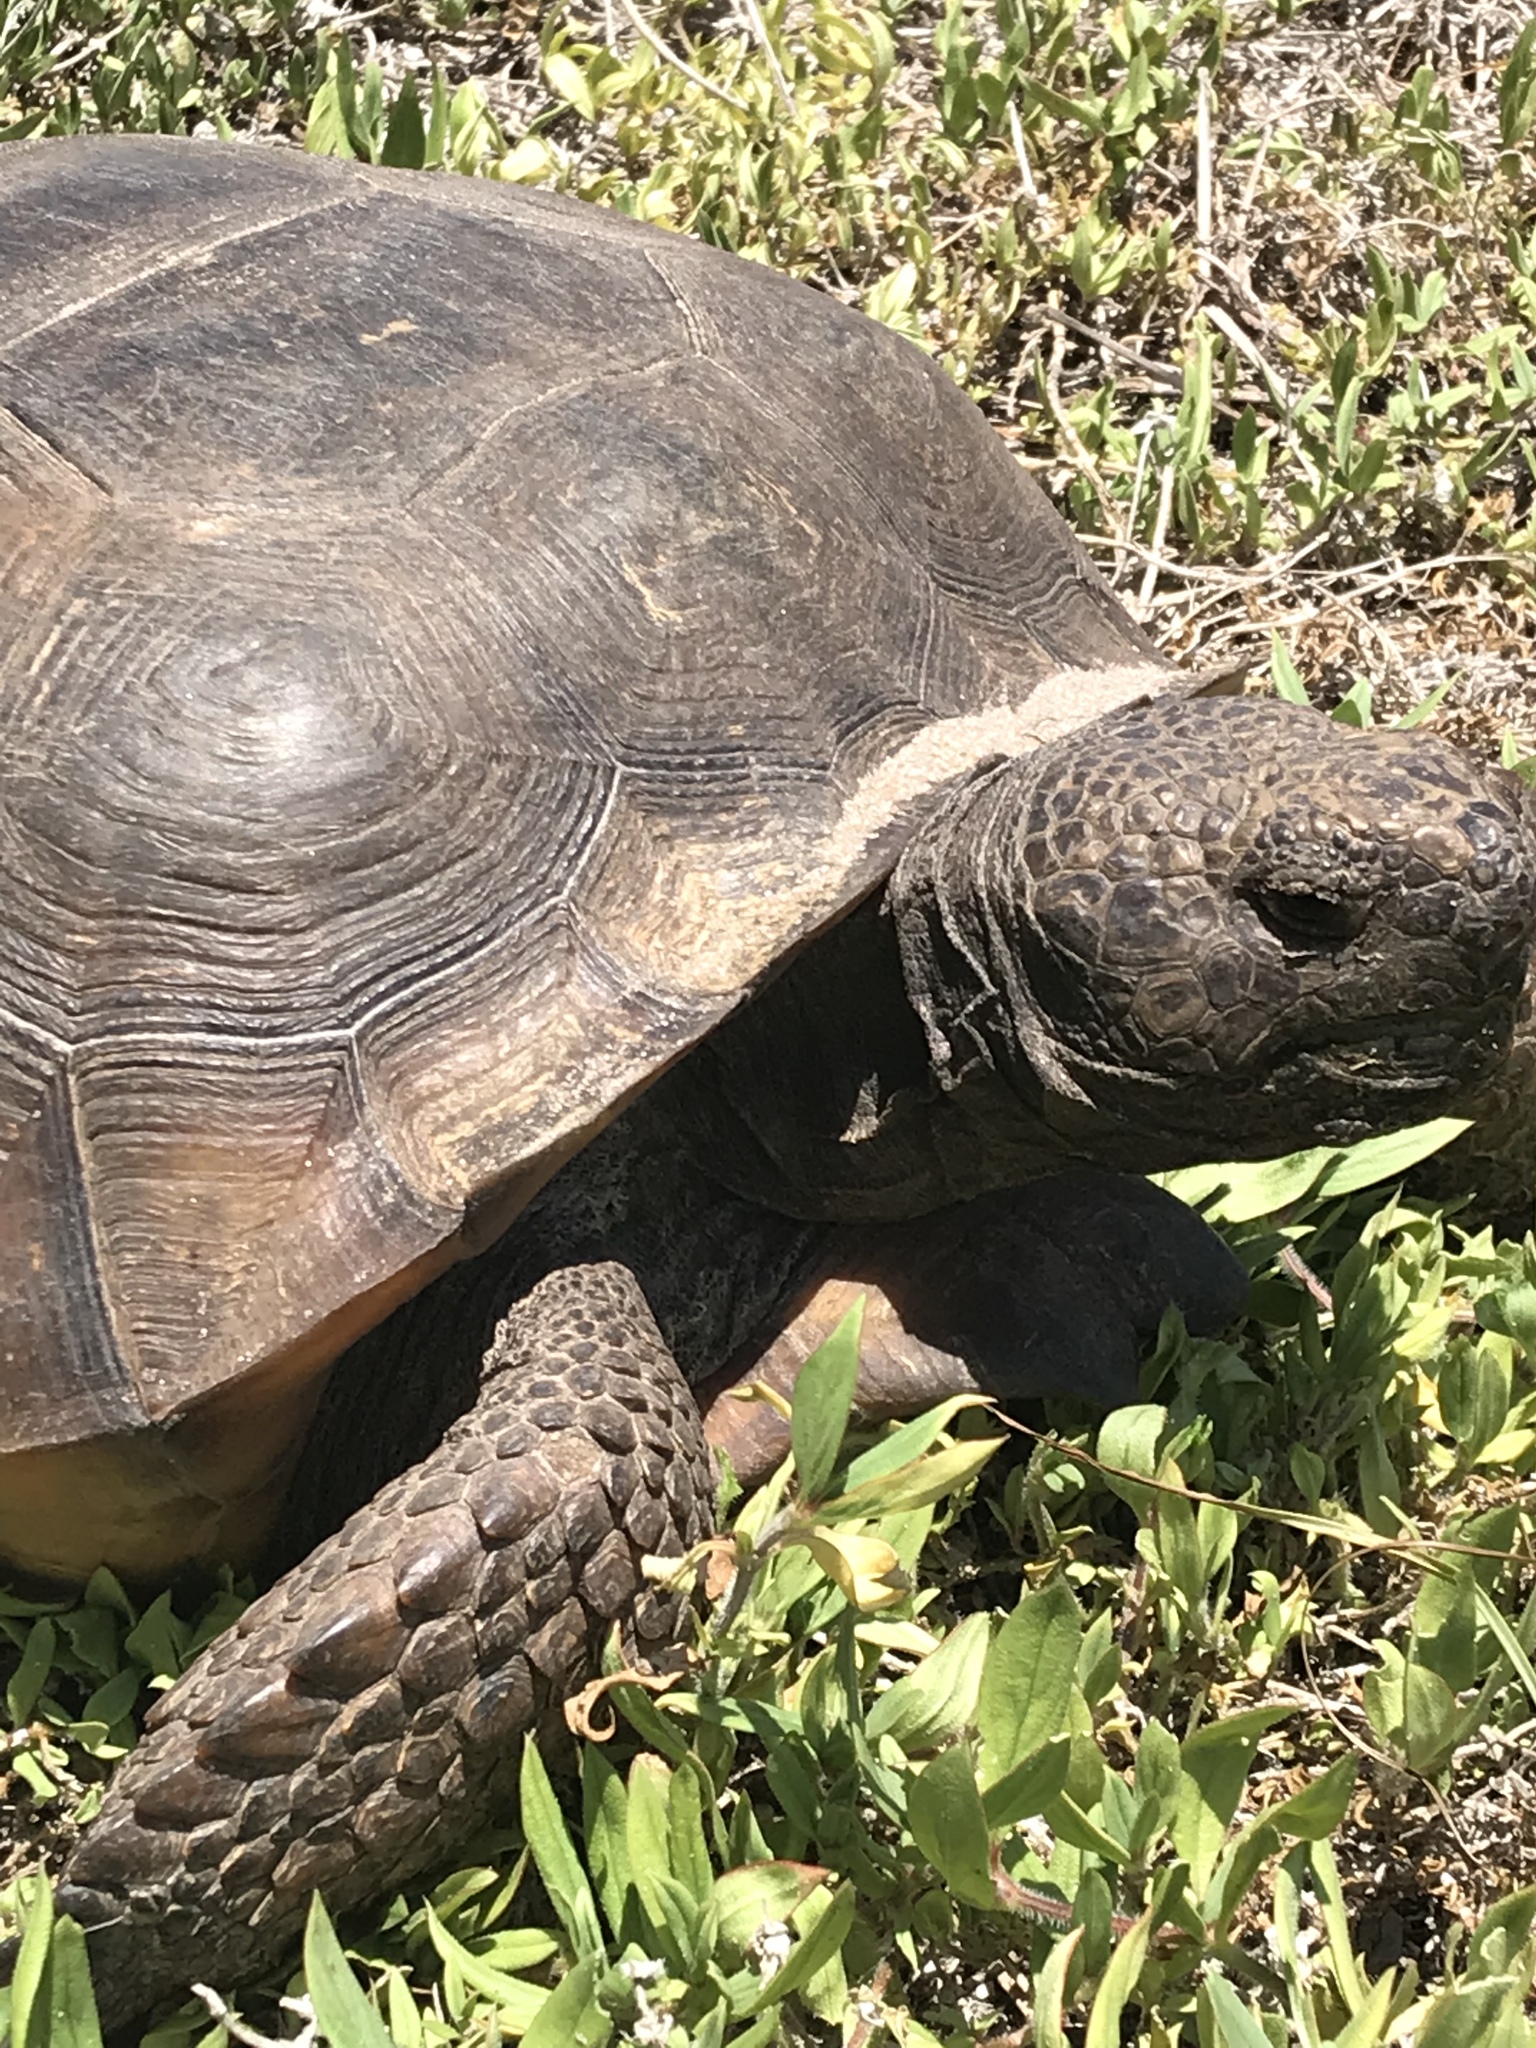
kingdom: Animalia
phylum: Chordata
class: Testudines
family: Testudinidae
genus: Gopherus
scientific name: Gopherus polyphemus
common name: Florida gopher tortoise
